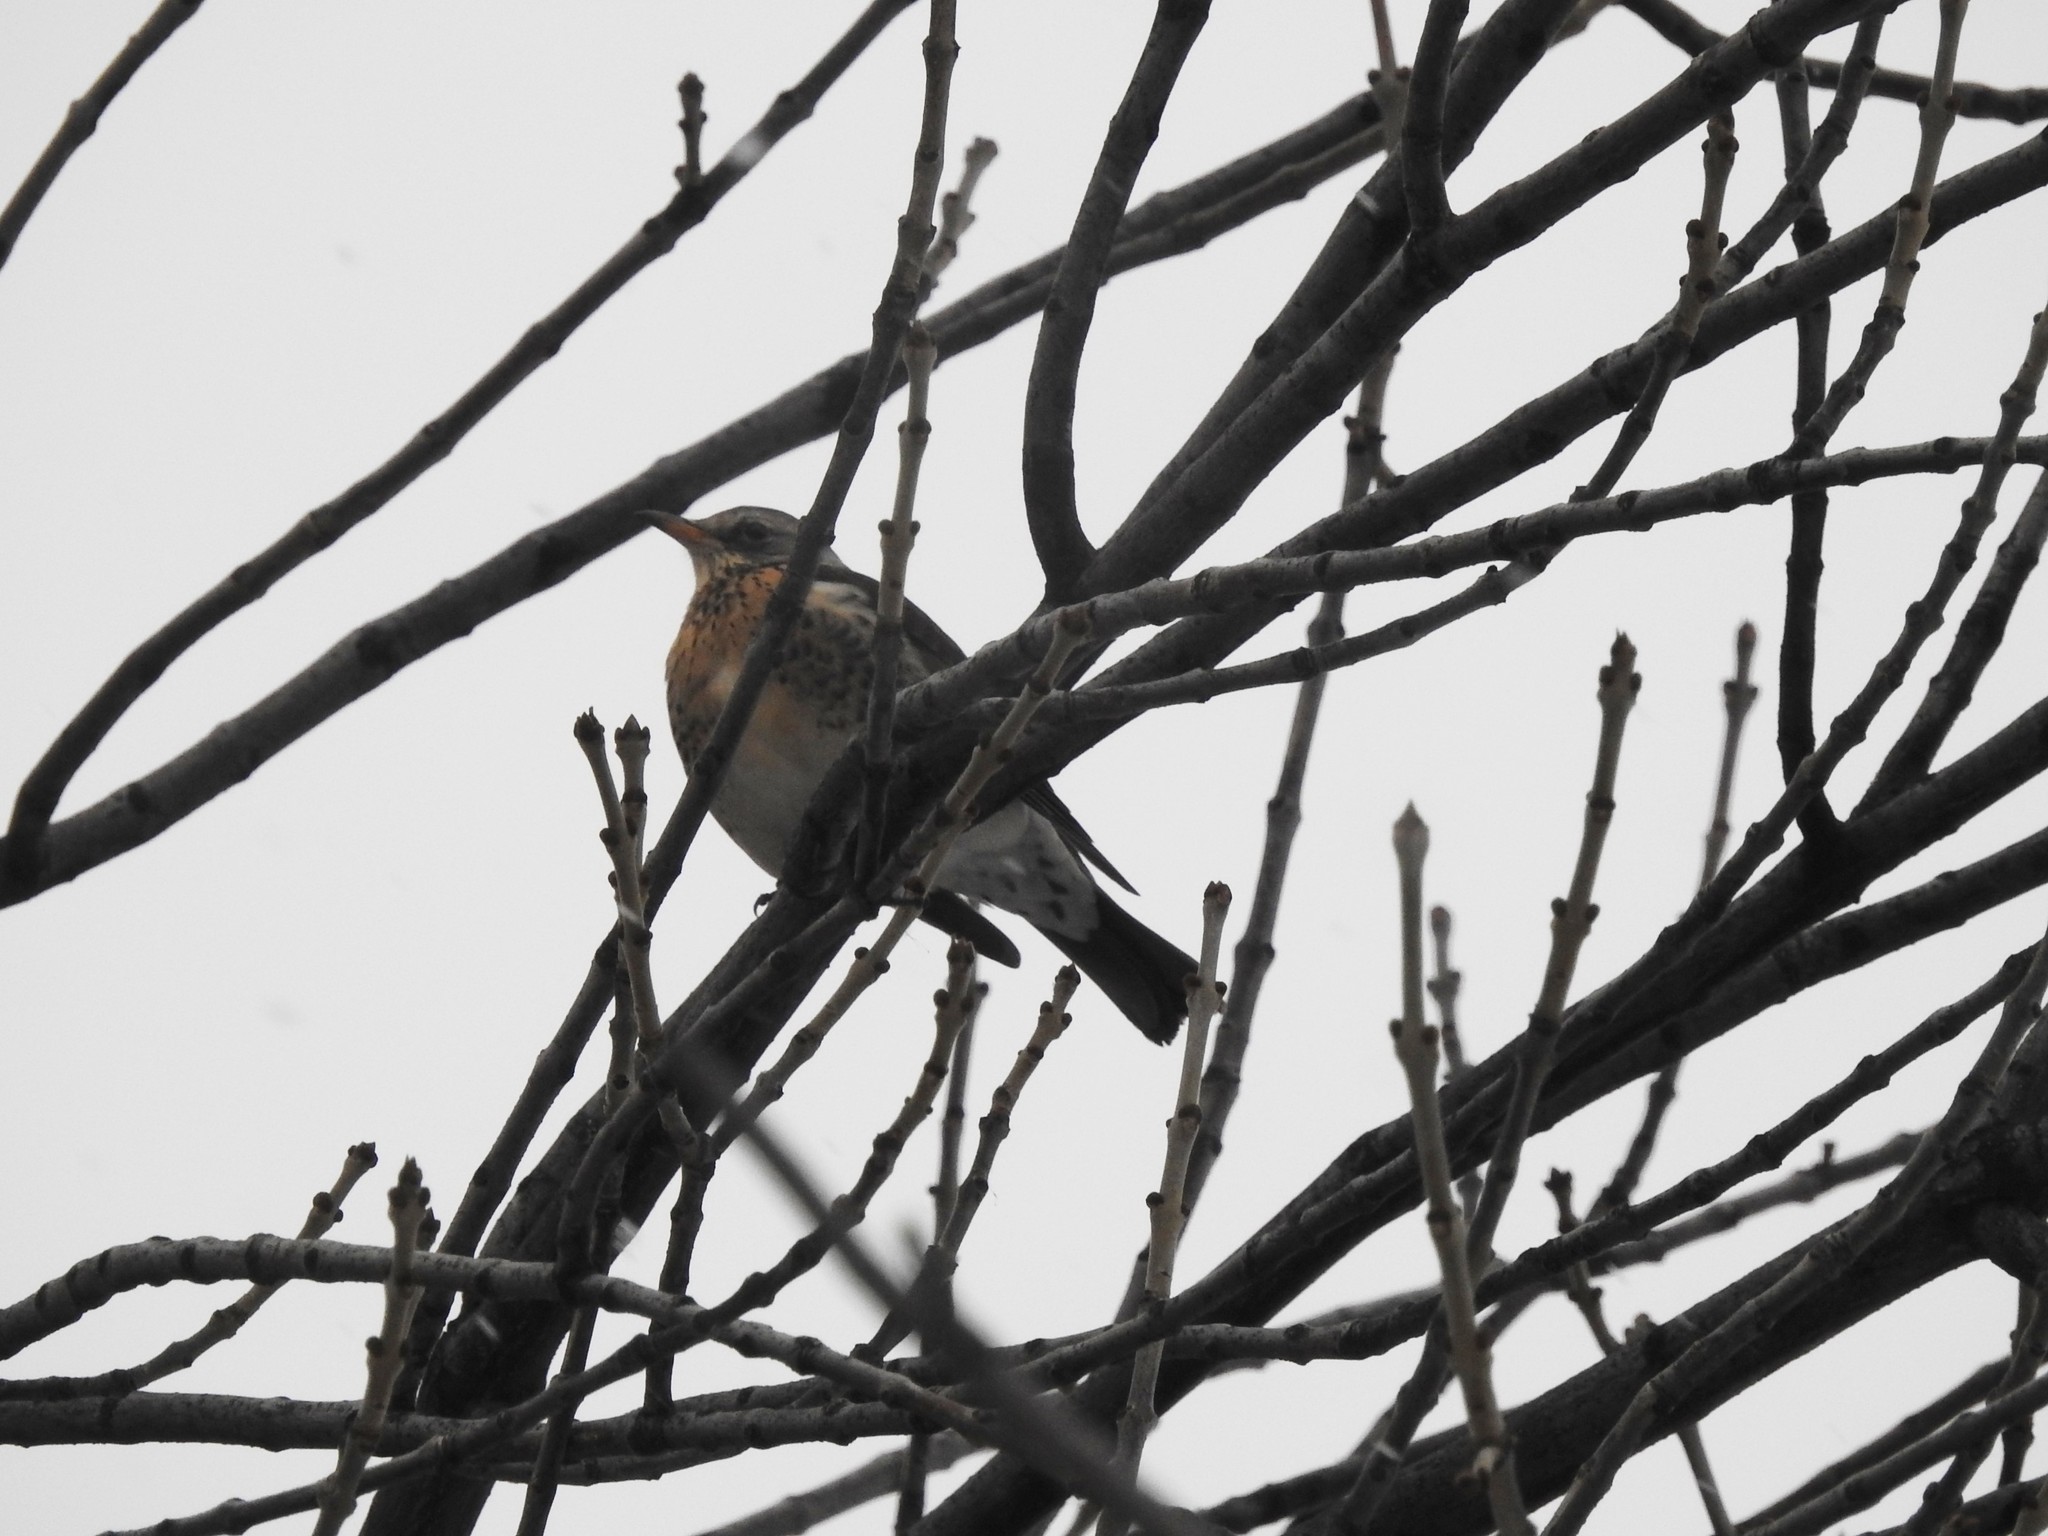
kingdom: Animalia
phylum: Chordata
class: Aves
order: Passeriformes
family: Turdidae
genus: Turdus
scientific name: Turdus pilaris
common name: Fieldfare
